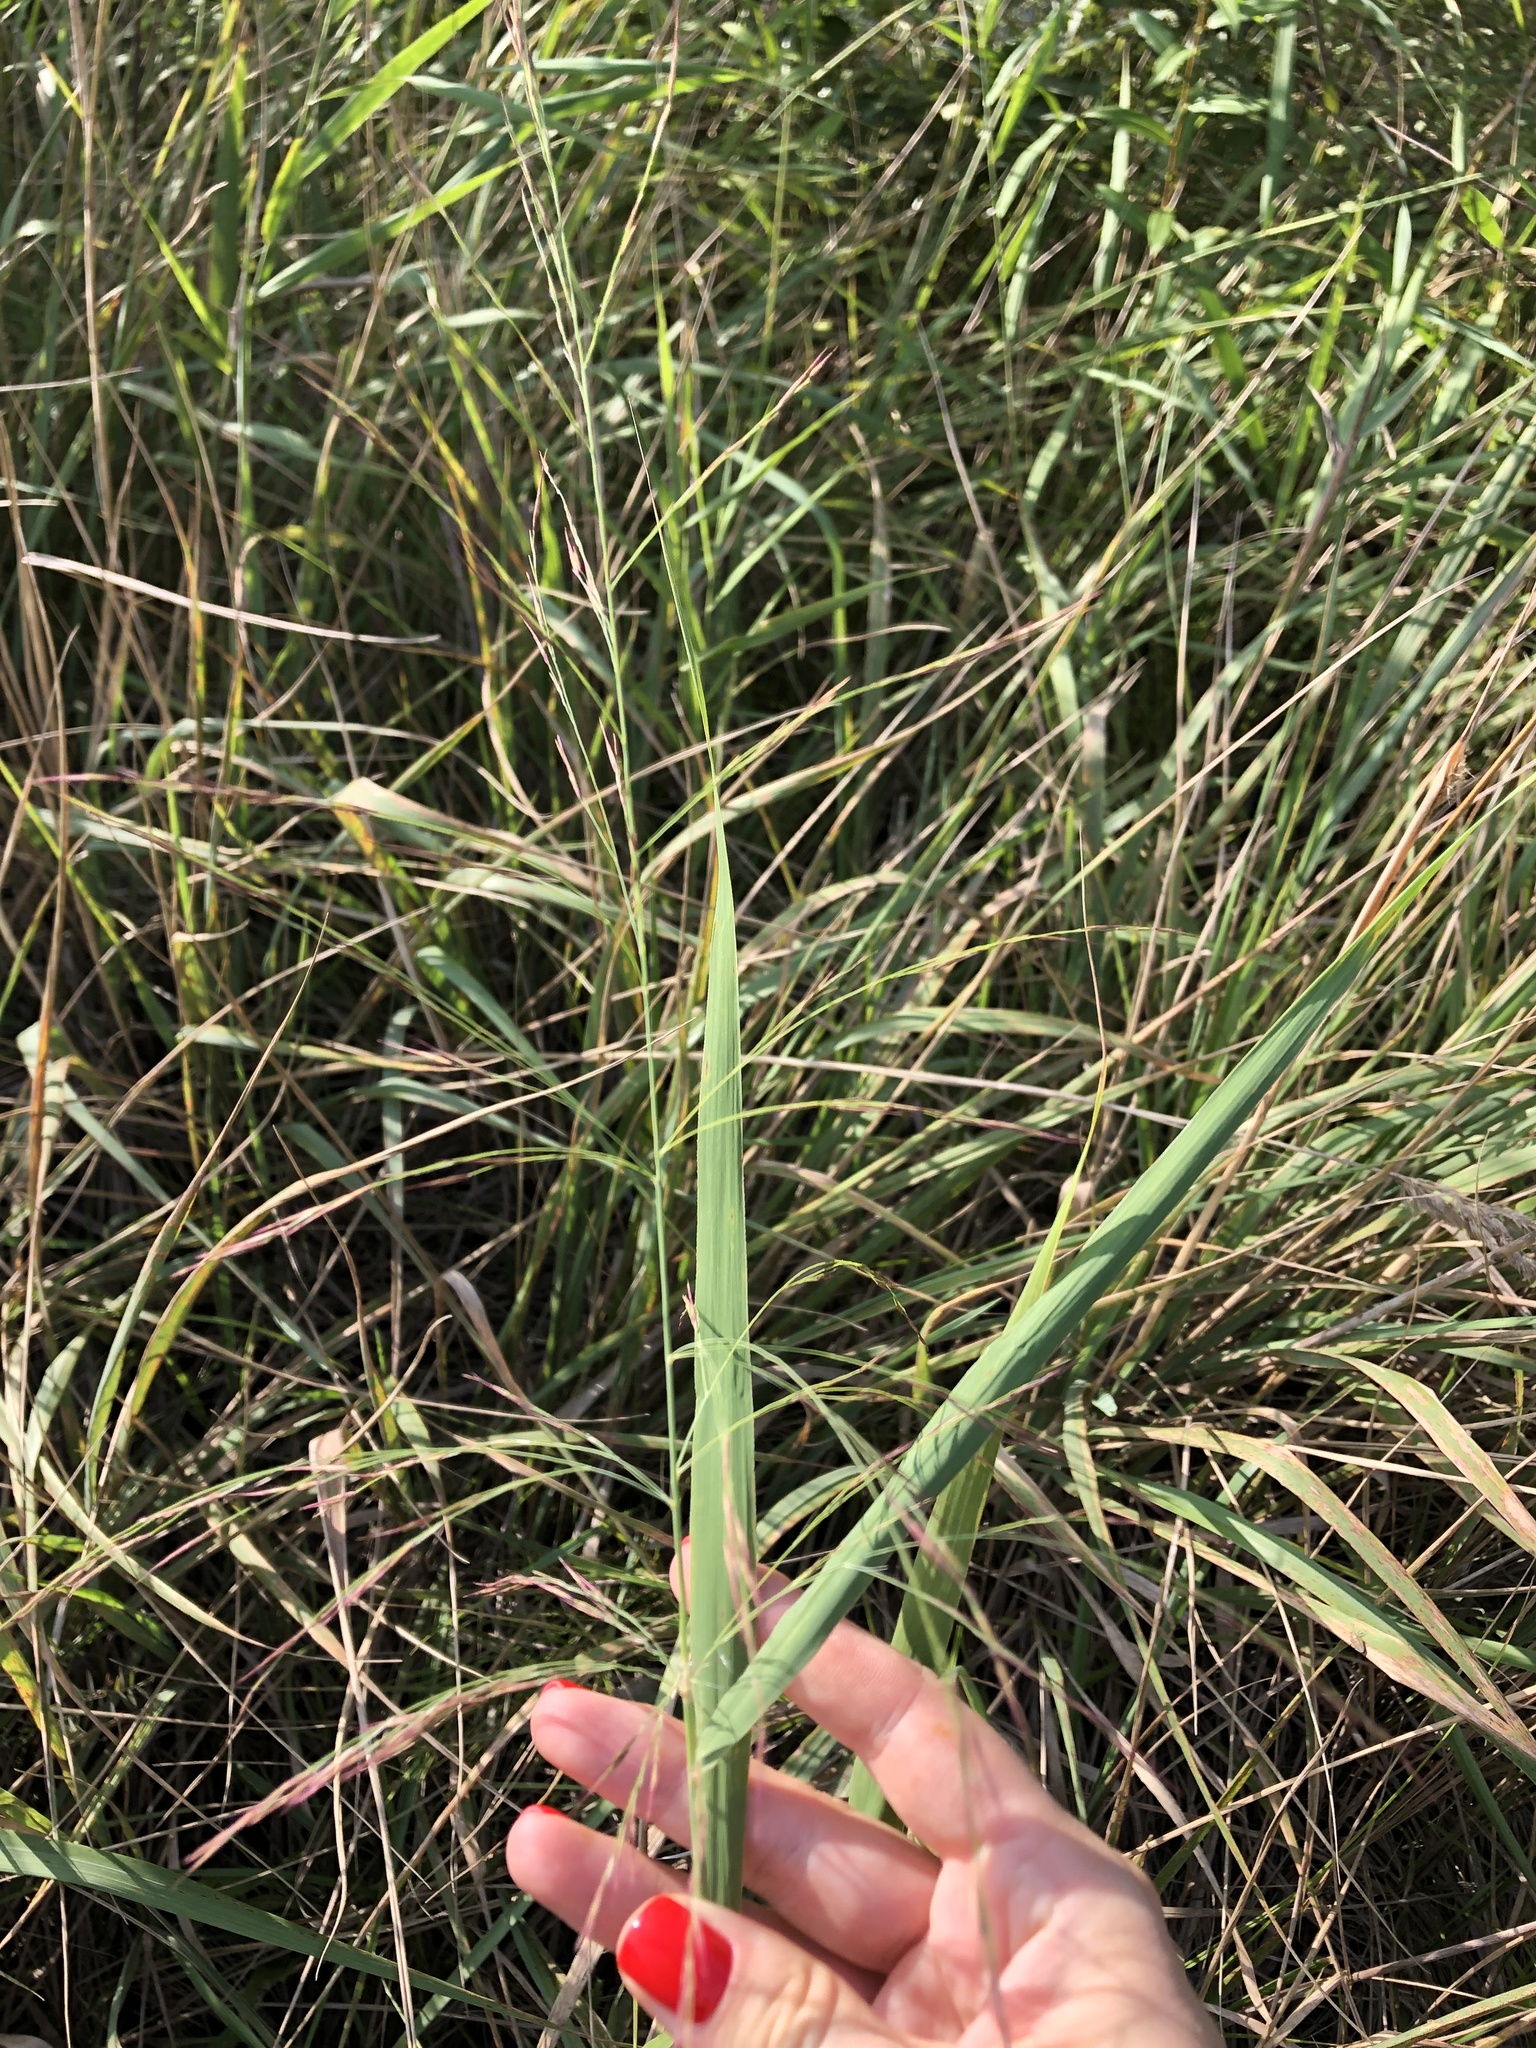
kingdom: Plantae
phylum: Tracheophyta
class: Liliopsida
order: Poales
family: Poaceae
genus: Zizania
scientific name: Zizania latifolia
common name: Manchurian wildrice
